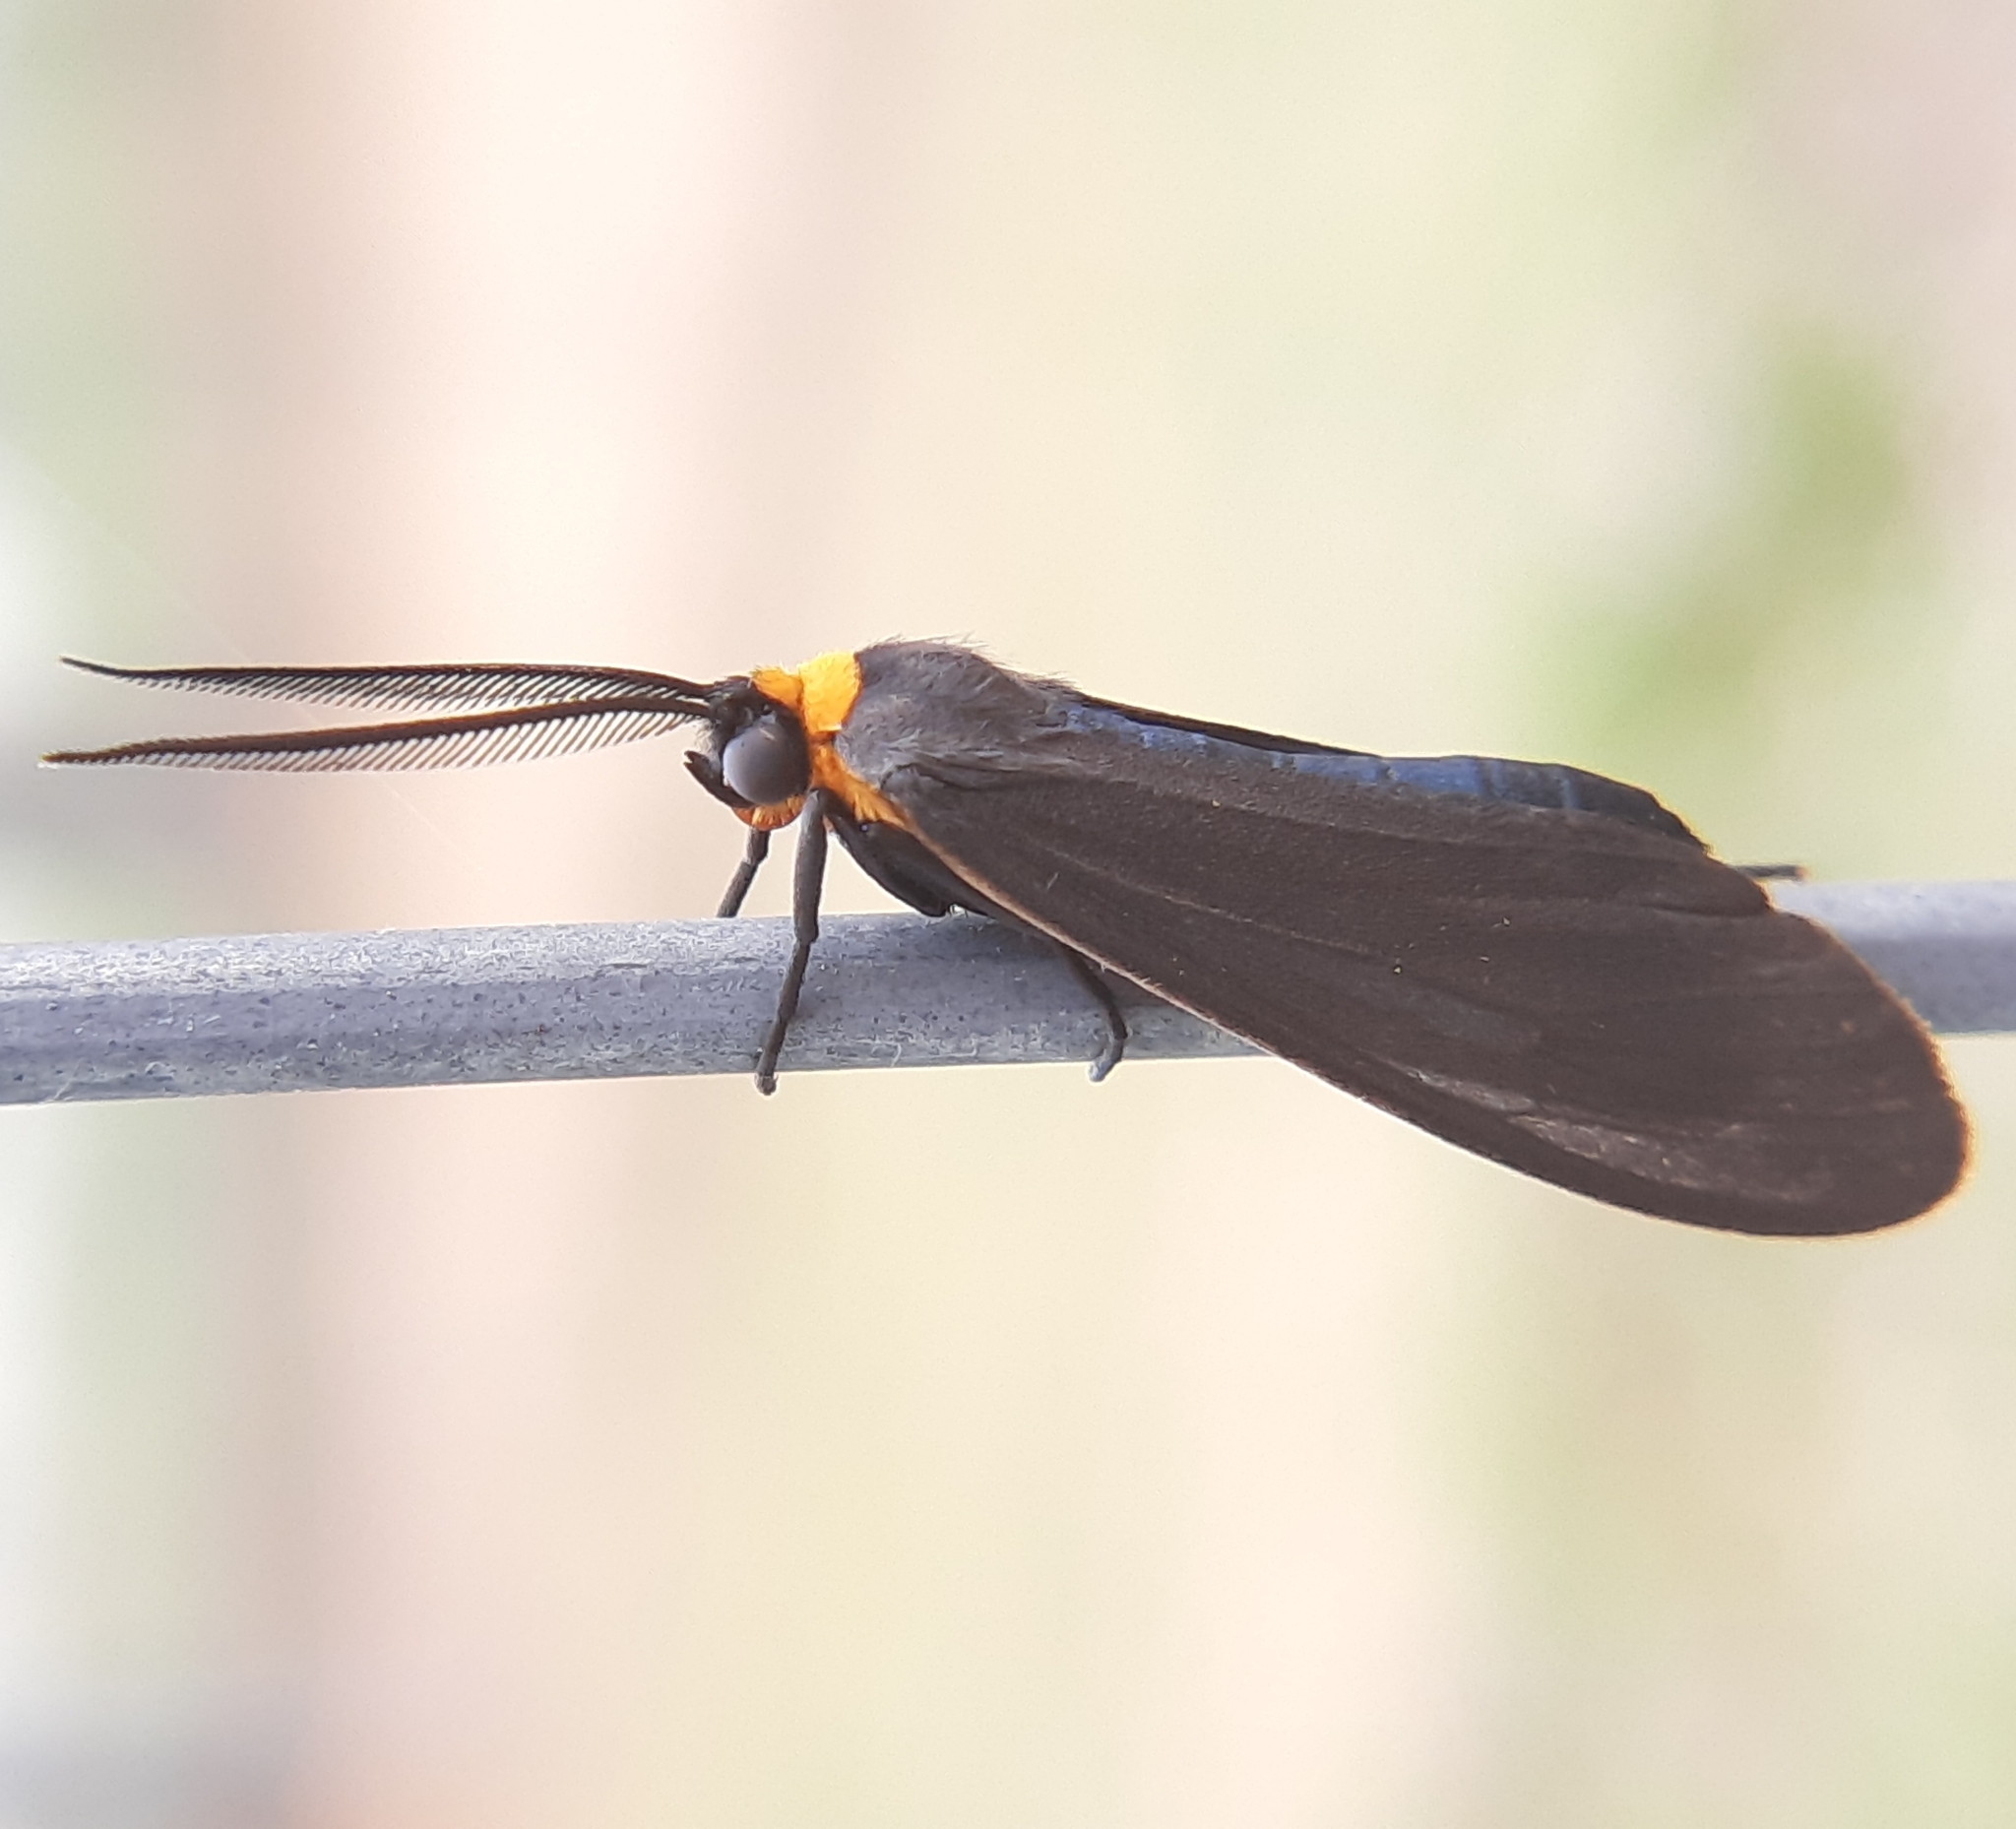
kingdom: Animalia
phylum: Arthropoda
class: Insecta
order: Lepidoptera
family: Erebidae
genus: Cisseps
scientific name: Cisseps fulvicollis
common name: Yellow-collared scape moth
